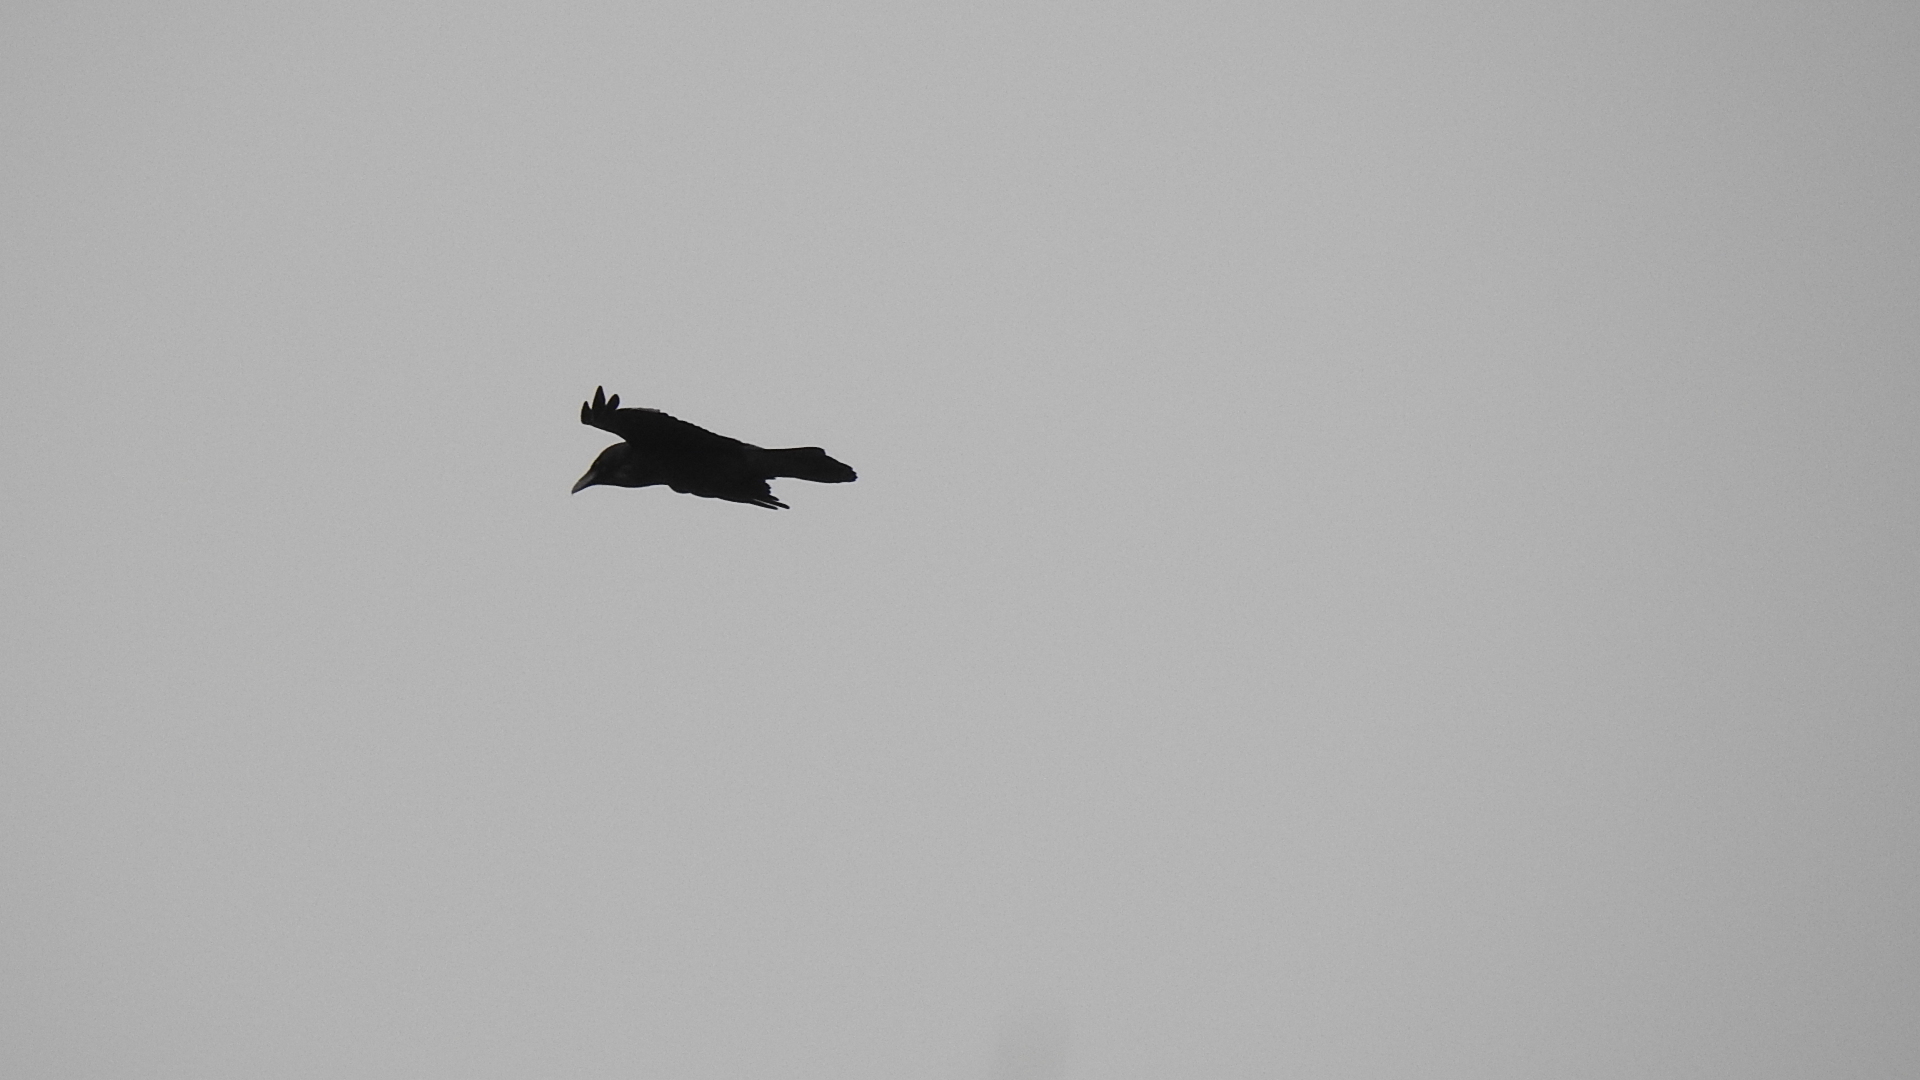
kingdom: Animalia
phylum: Chordata
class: Aves
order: Passeriformes
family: Corvidae
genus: Corvus
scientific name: Corvus corax
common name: Common raven
